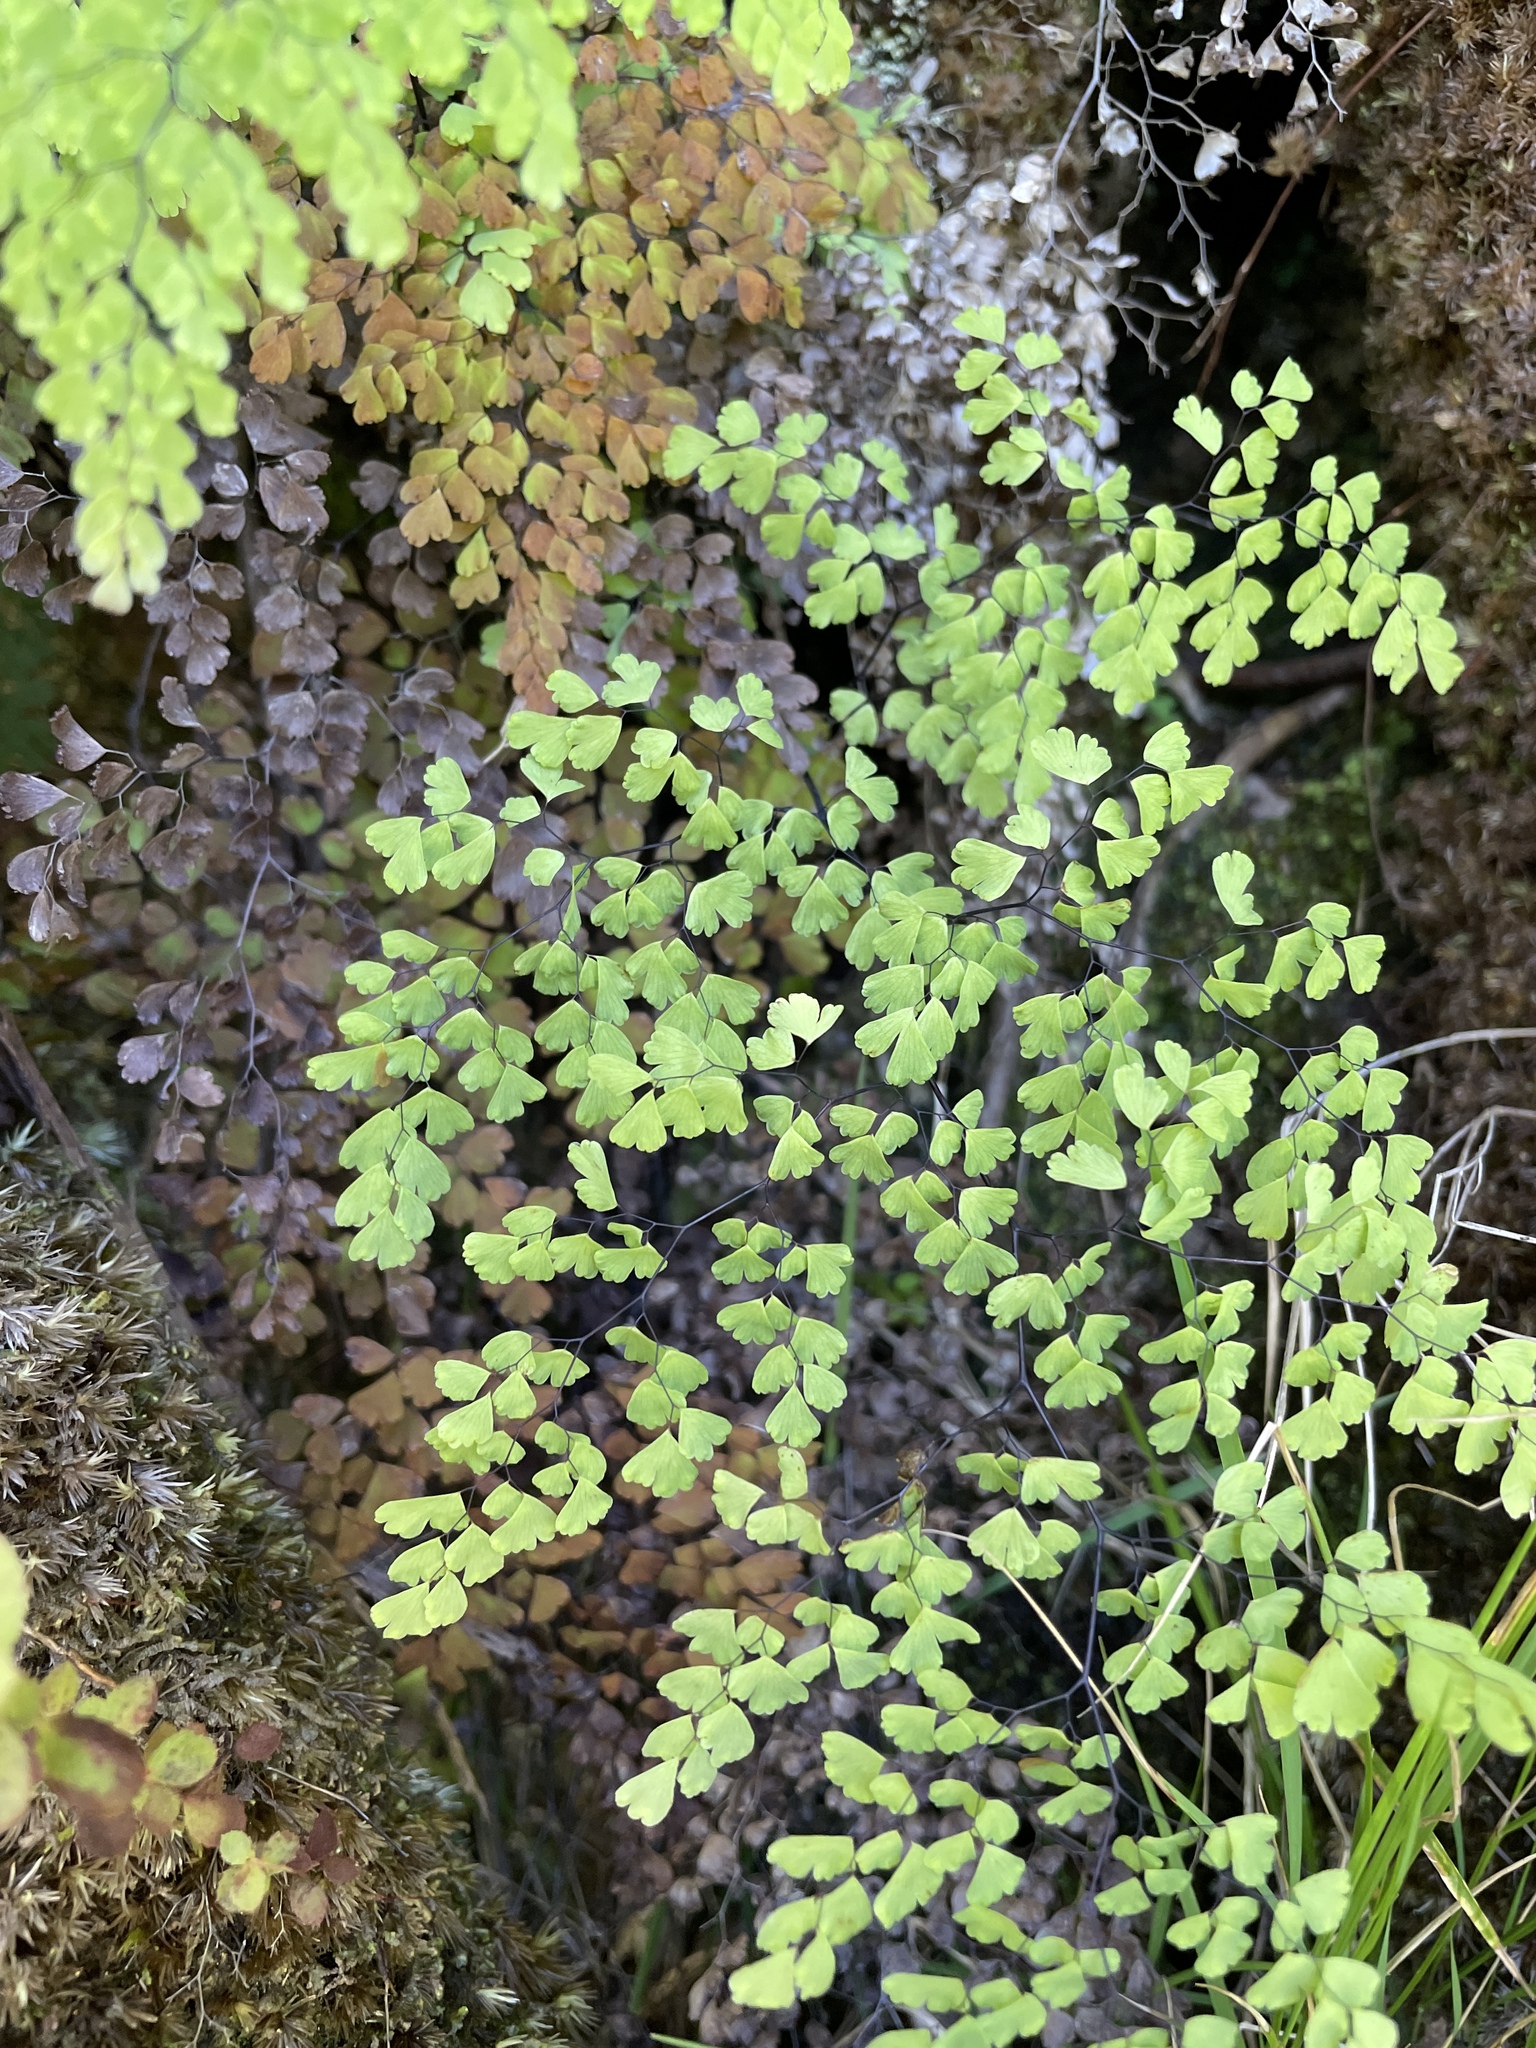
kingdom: Plantae
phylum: Tracheophyta
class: Polypodiopsida
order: Polypodiales
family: Pteridaceae
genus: Adiantum
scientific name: Adiantum raddianum
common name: Delta maidenhair fern
